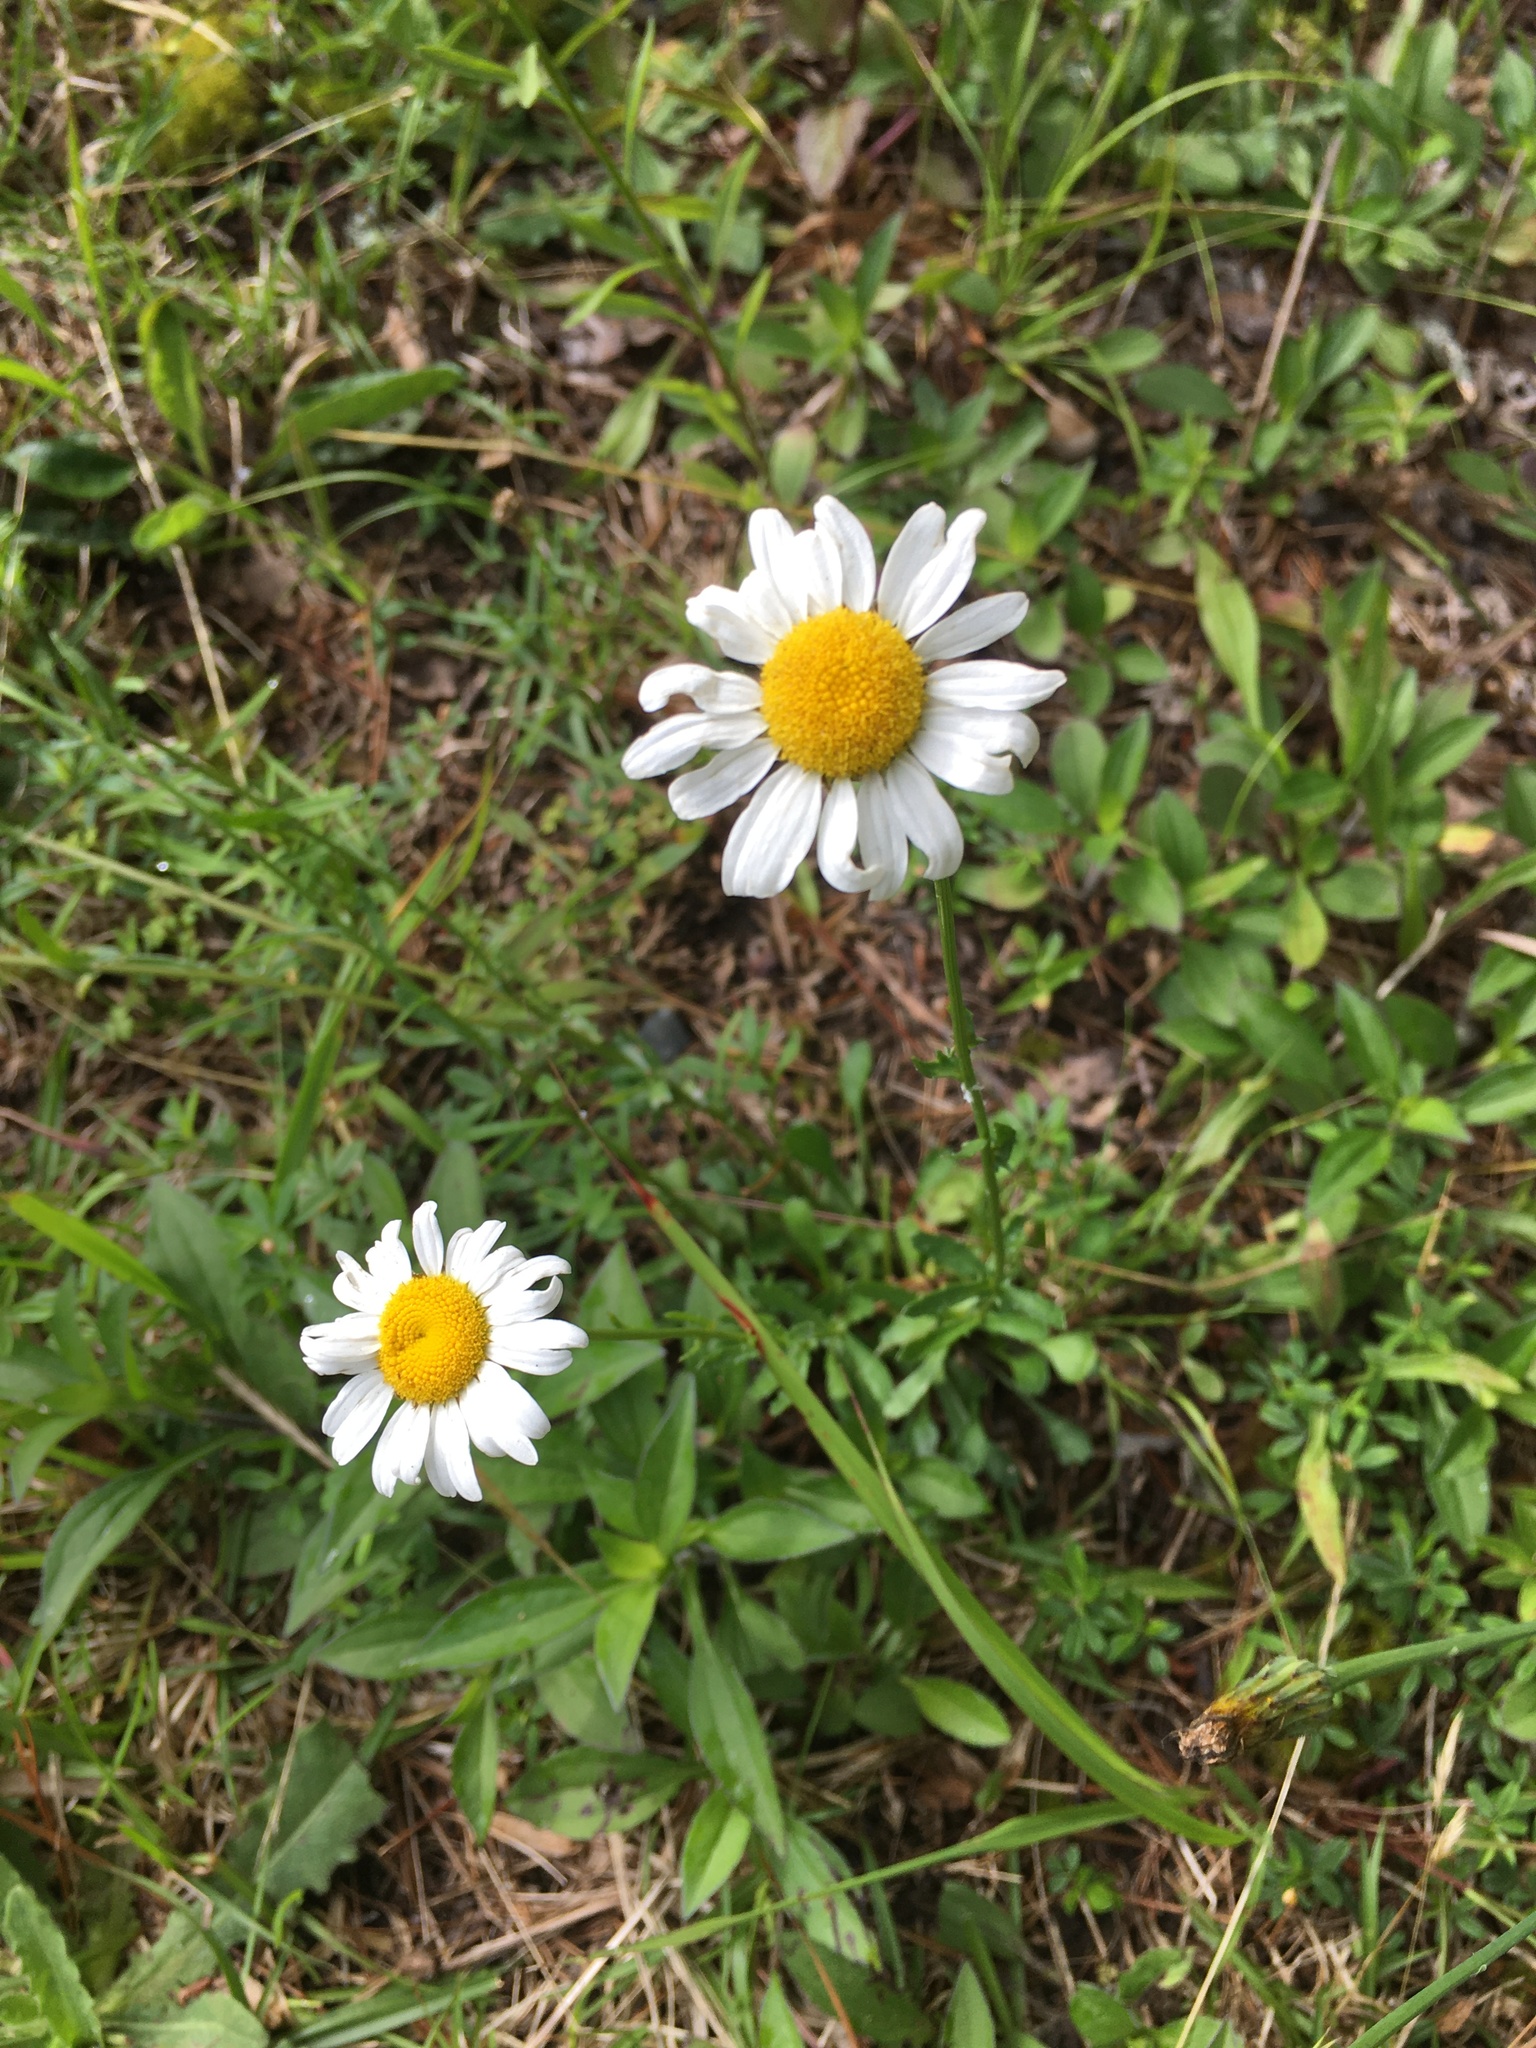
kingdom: Plantae
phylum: Tracheophyta
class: Magnoliopsida
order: Asterales
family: Asteraceae
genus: Leucanthemum
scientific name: Leucanthemum vulgare
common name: Oxeye daisy
